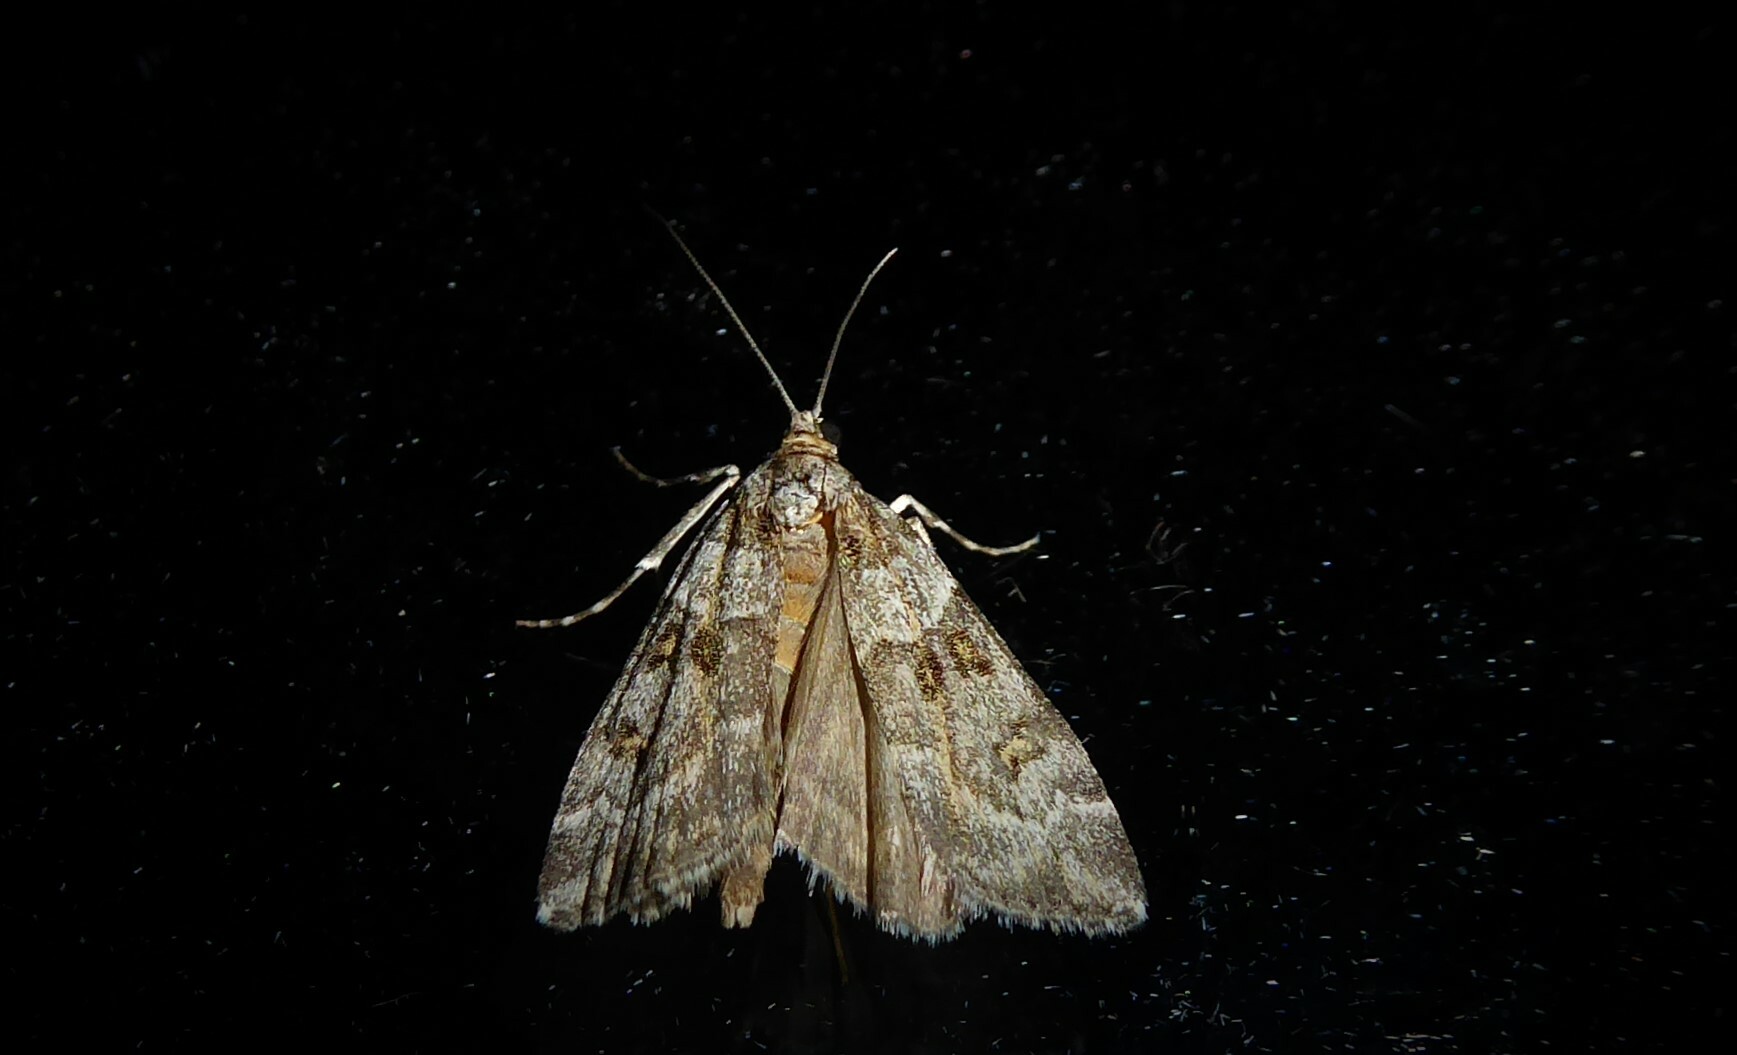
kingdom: Animalia
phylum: Arthropoda
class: Insecta
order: Lepidoptera
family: Crambidae
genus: Scoparia
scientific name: Scoparia tetracycla
